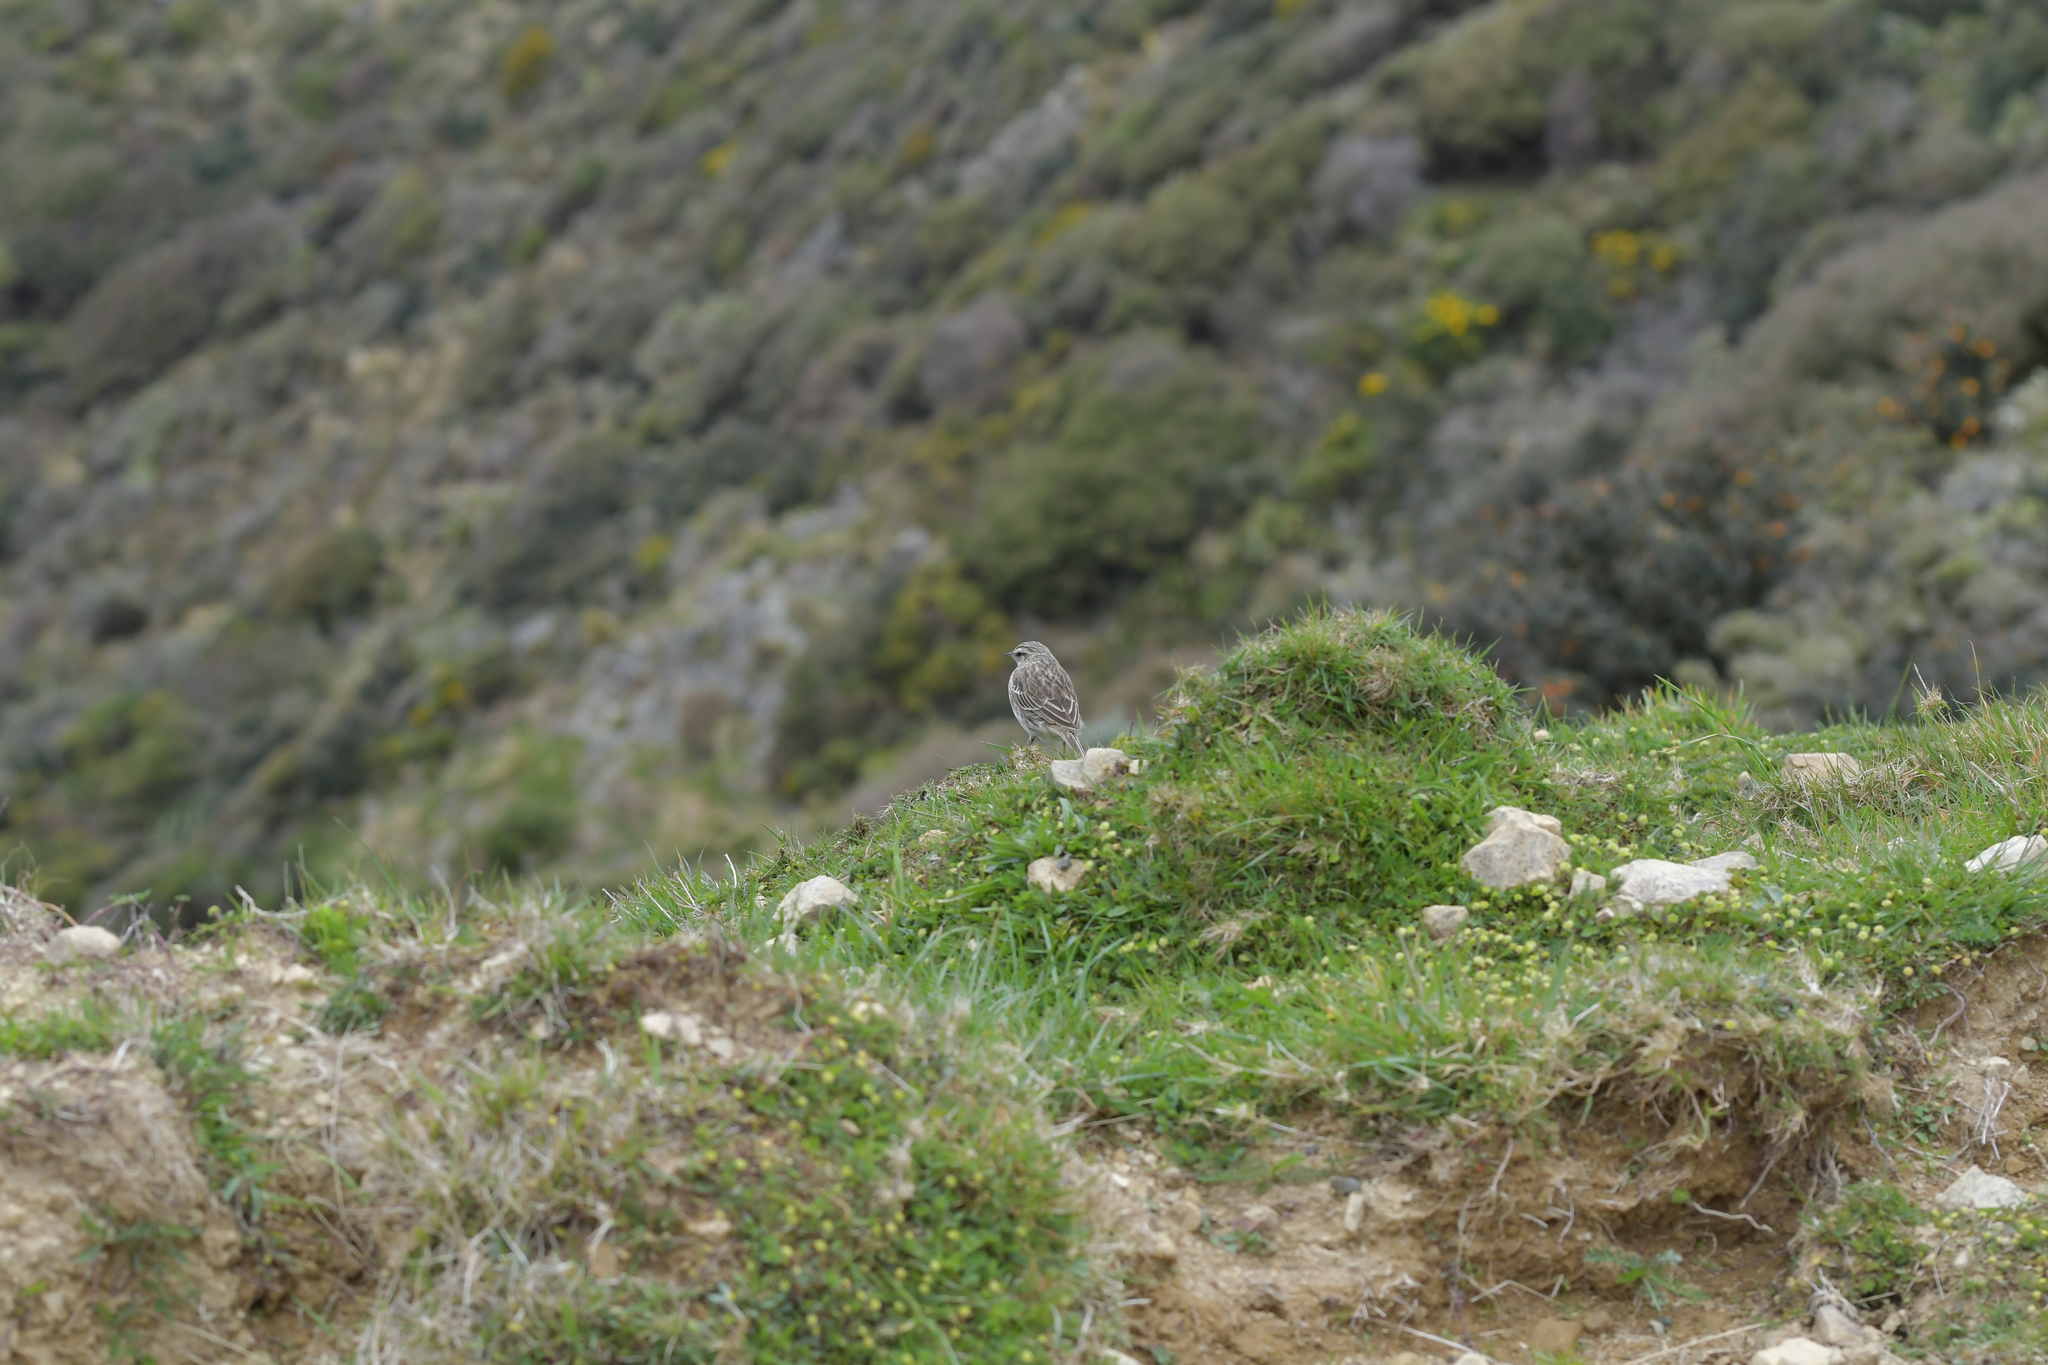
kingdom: Animalia
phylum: Chordata
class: Aves
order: Passeriformes
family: Motacillidae
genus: Anthus
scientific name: Anthus novaeseelandiae
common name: New zealand pipit
